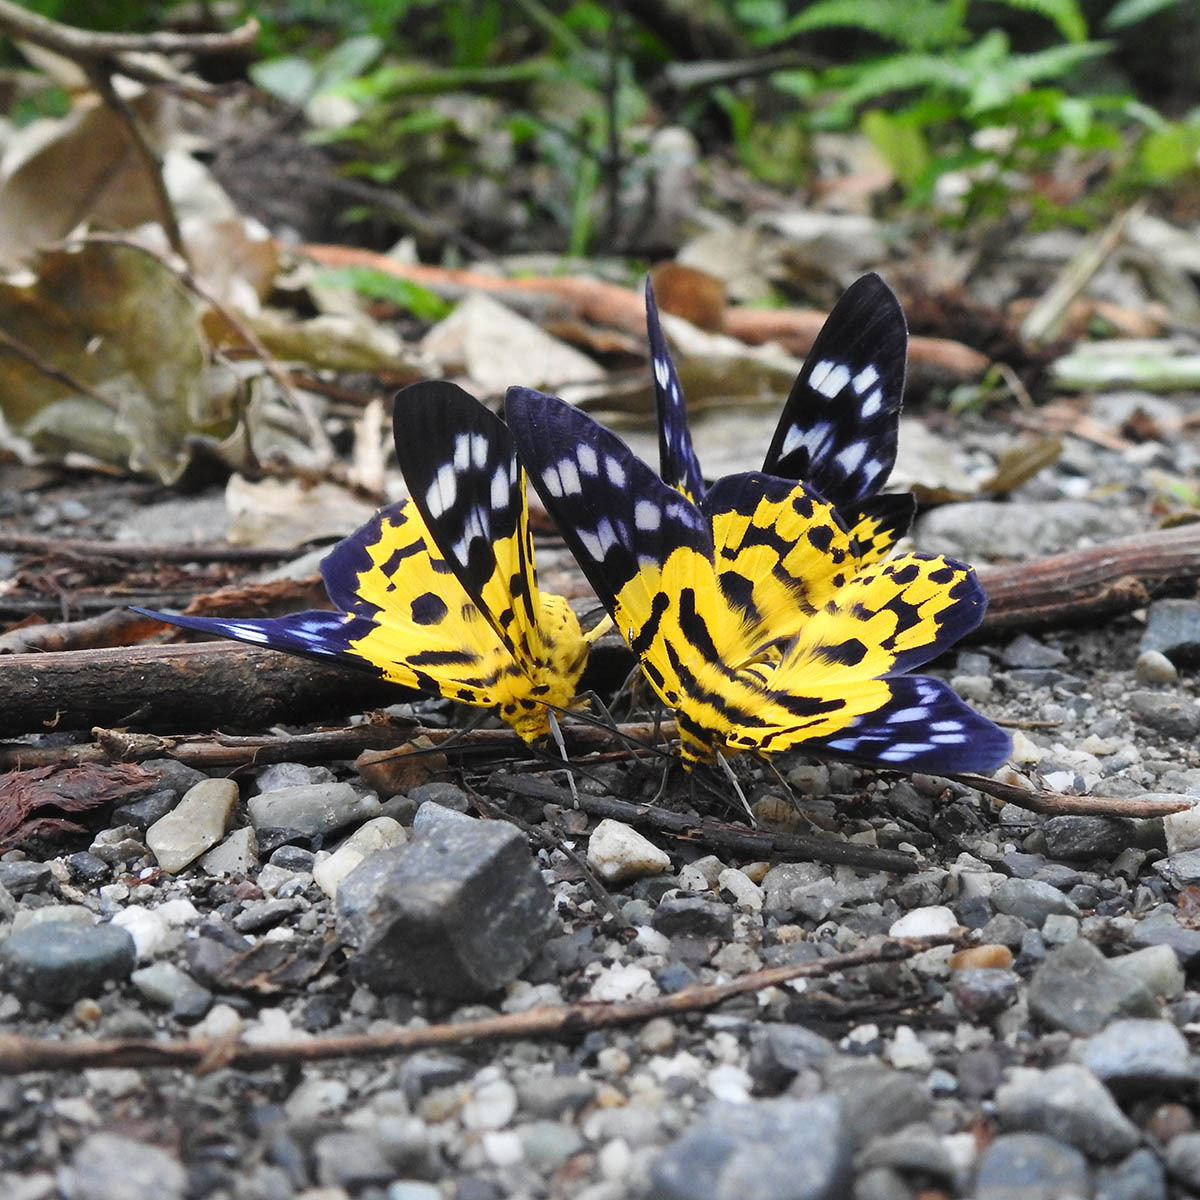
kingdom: Animalia
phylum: Arthropoda
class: Insecta
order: Lepidoptera
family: Geometridae
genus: Dysphania
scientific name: Dysphania militaris
